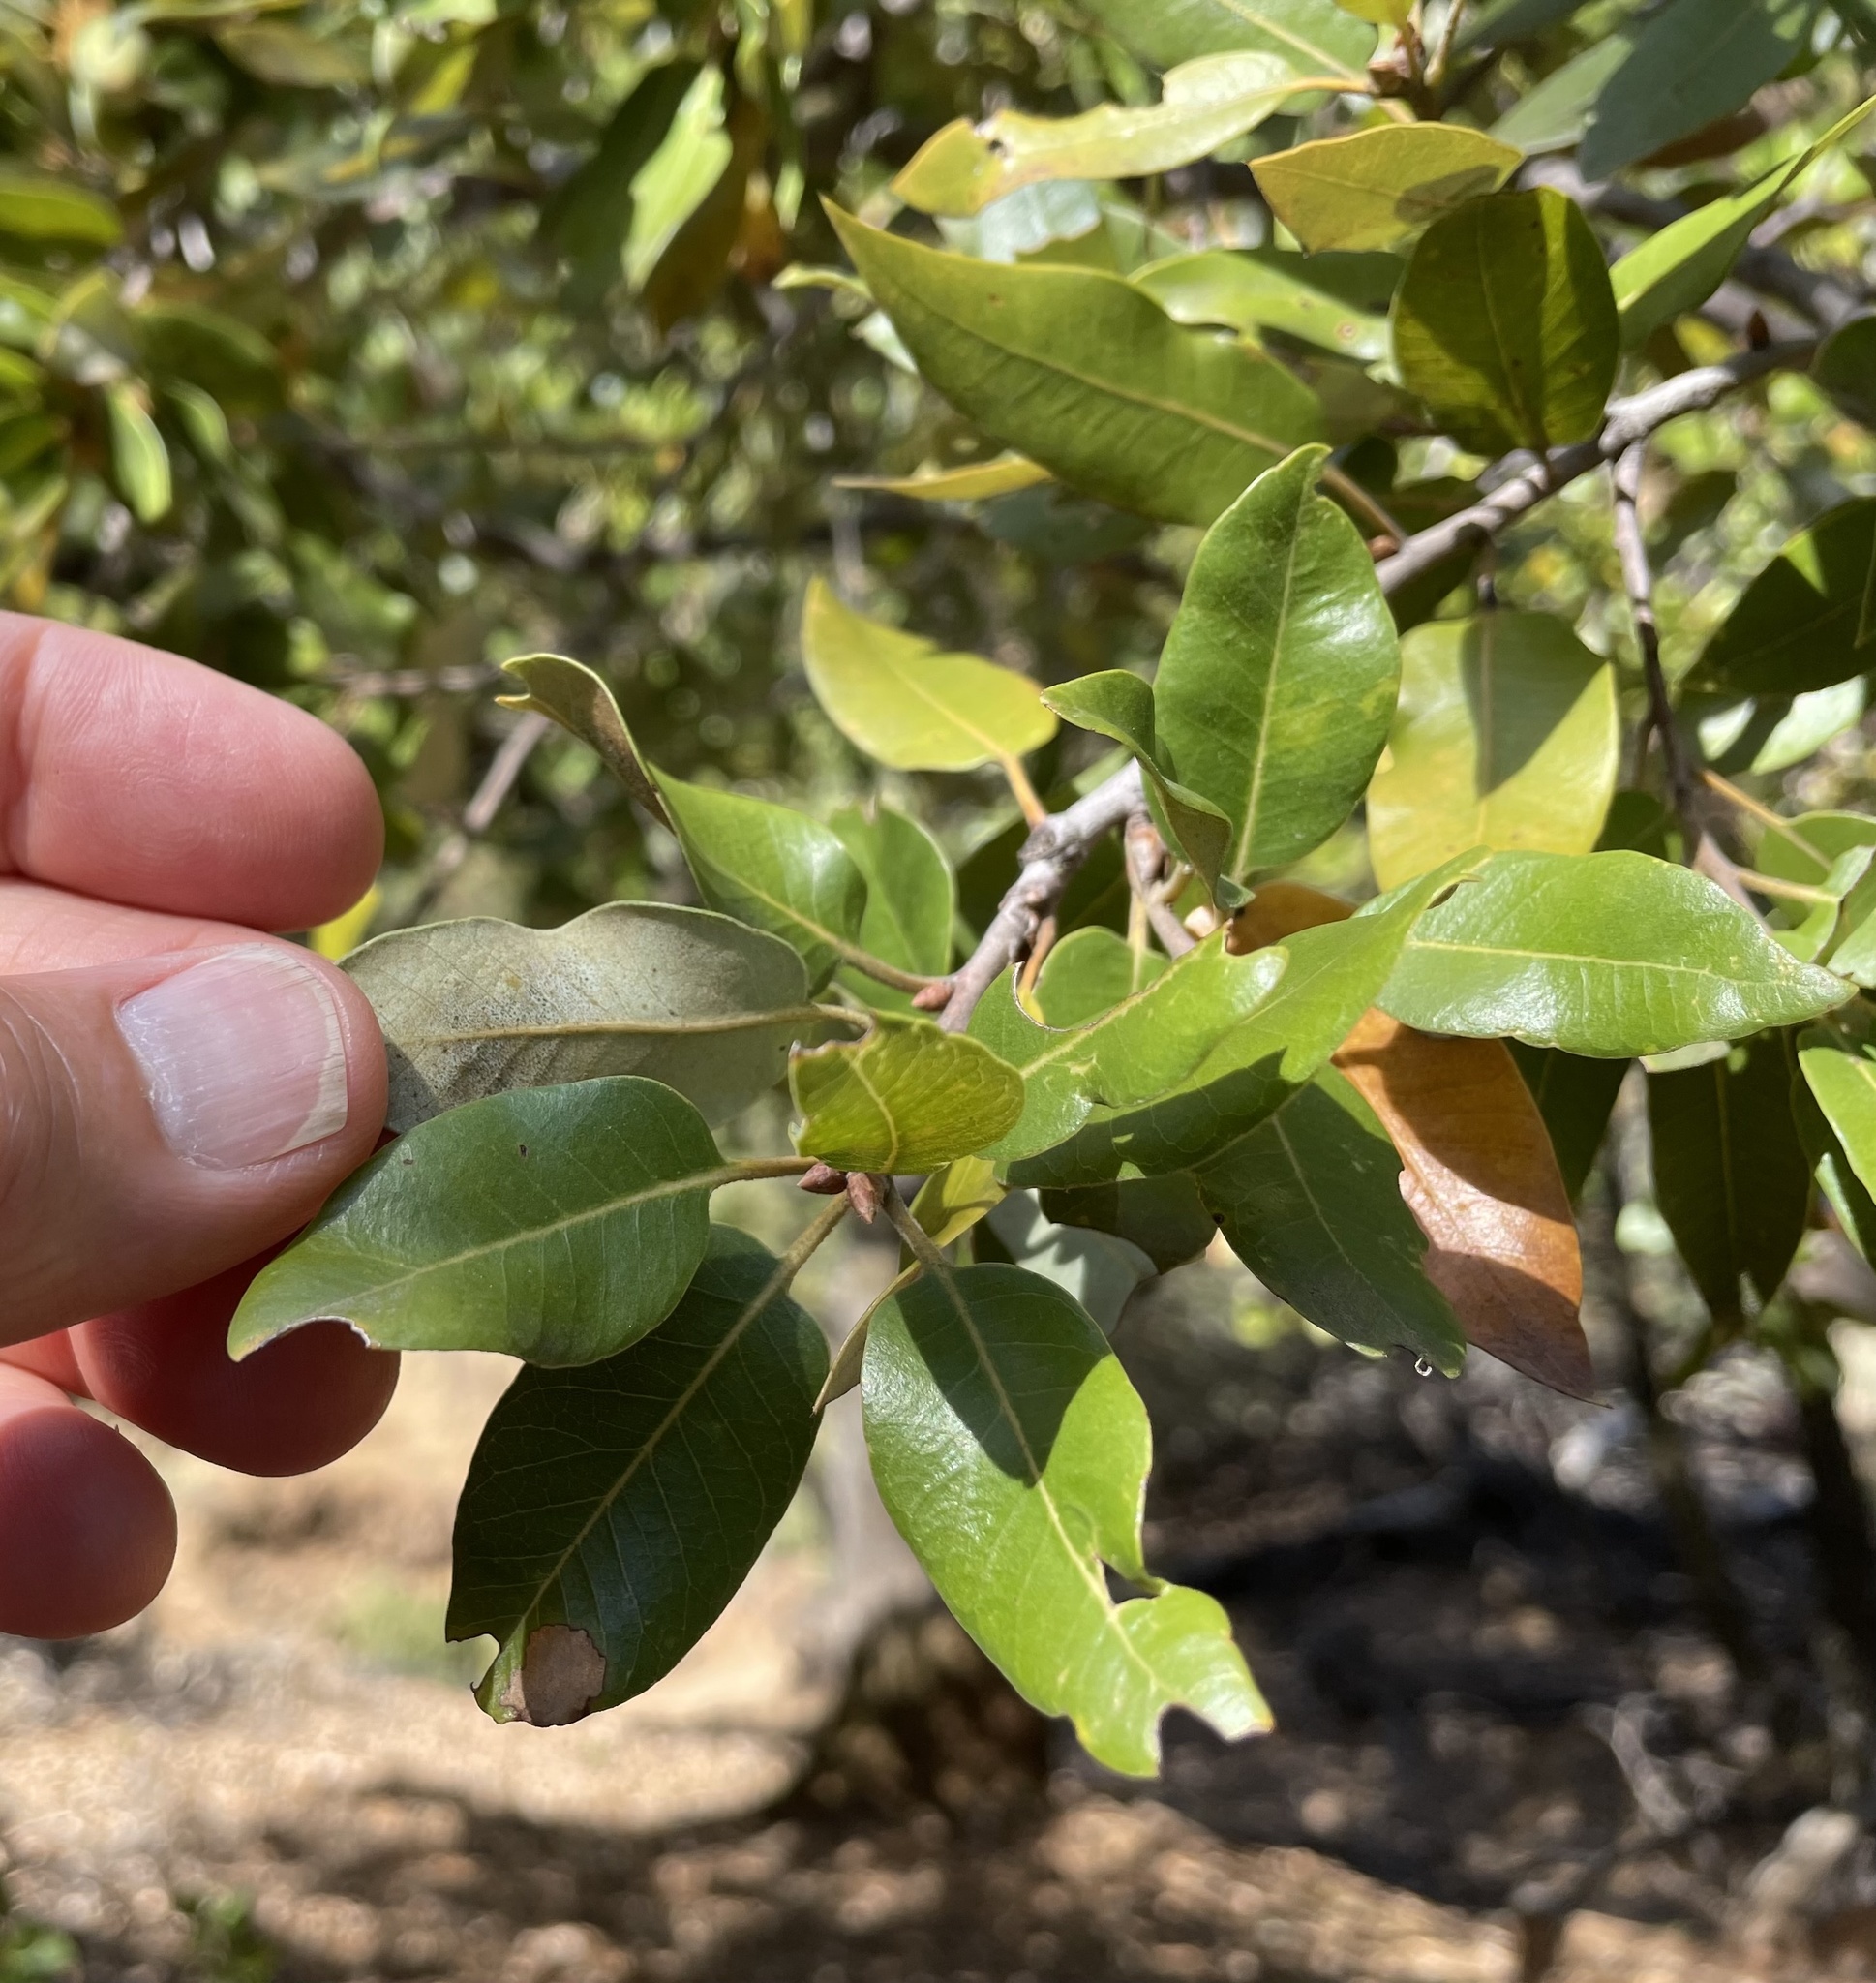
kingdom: Plantae
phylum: Tracheophyta
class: Magnoliopsida
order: Fagales
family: Fagaceae
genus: Quercus
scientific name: Quercus chrysolepis
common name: Canyon live oak
